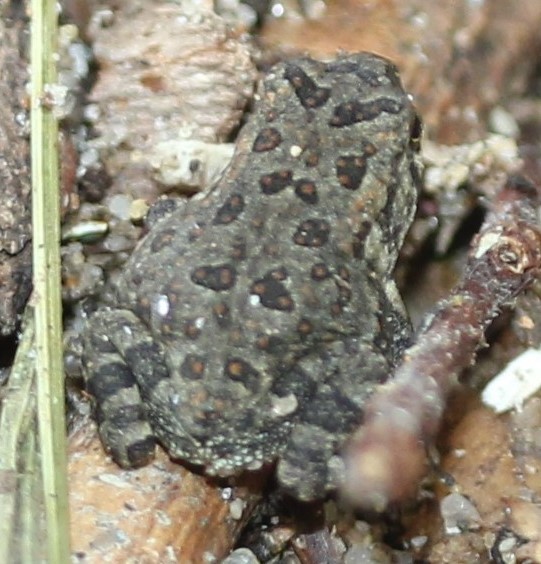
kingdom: Animalia
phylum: Chordata
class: Amphibia
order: Anura
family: Bufonidae
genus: Anaxyrus
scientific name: Anaxyrus fowleri
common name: Fowler's toad
